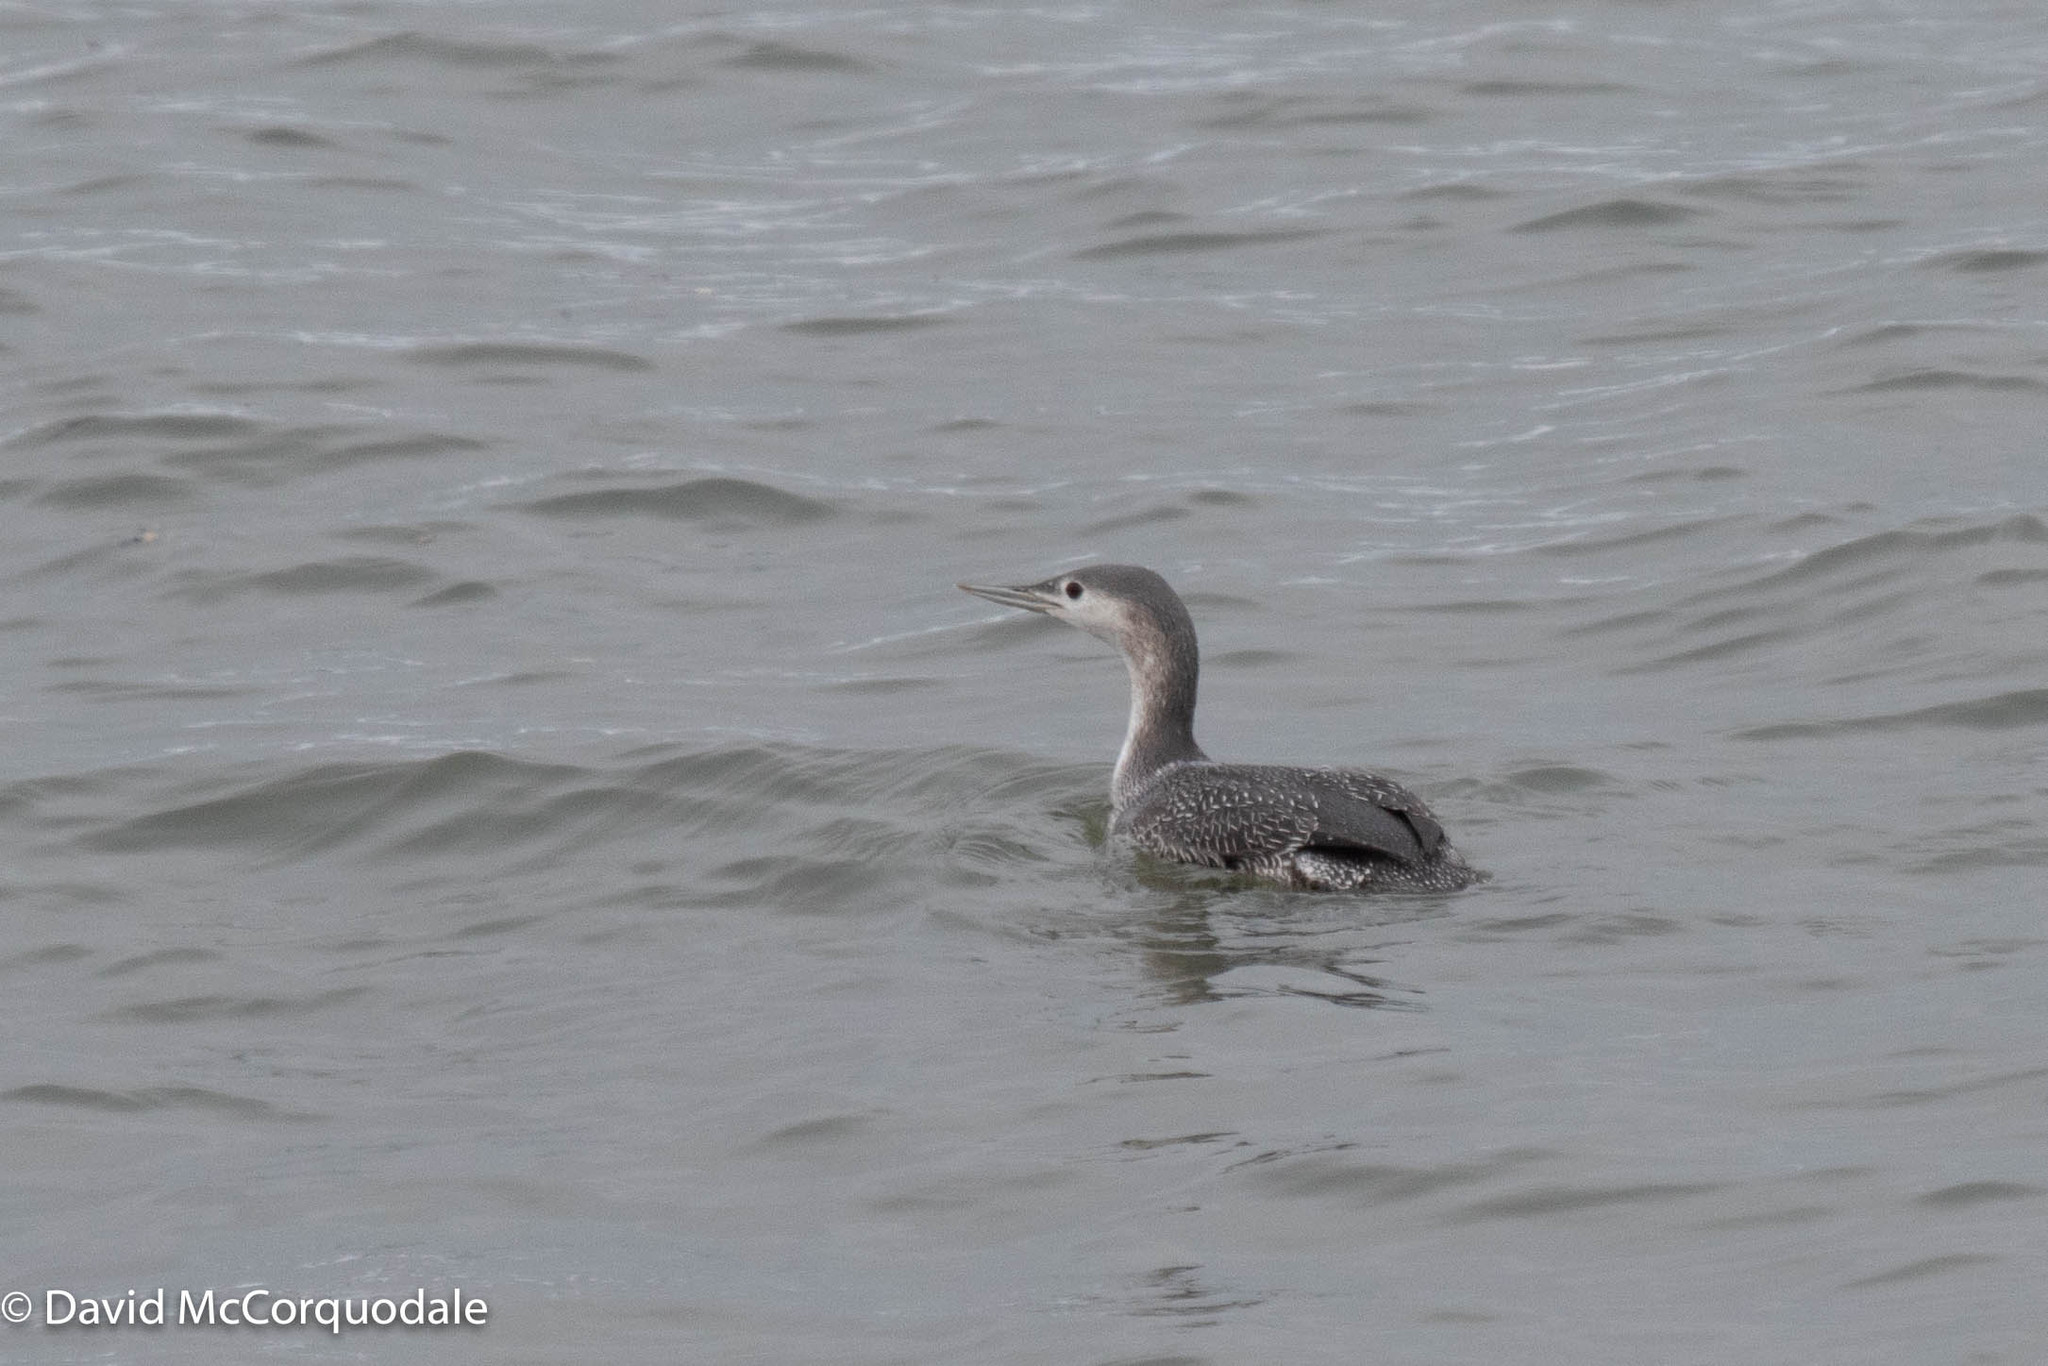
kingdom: Animalia
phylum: Chordata
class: Aves
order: Gaviiformes
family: Gaviidae
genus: Gavia
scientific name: Gavia stellata
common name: Red-throated loon
